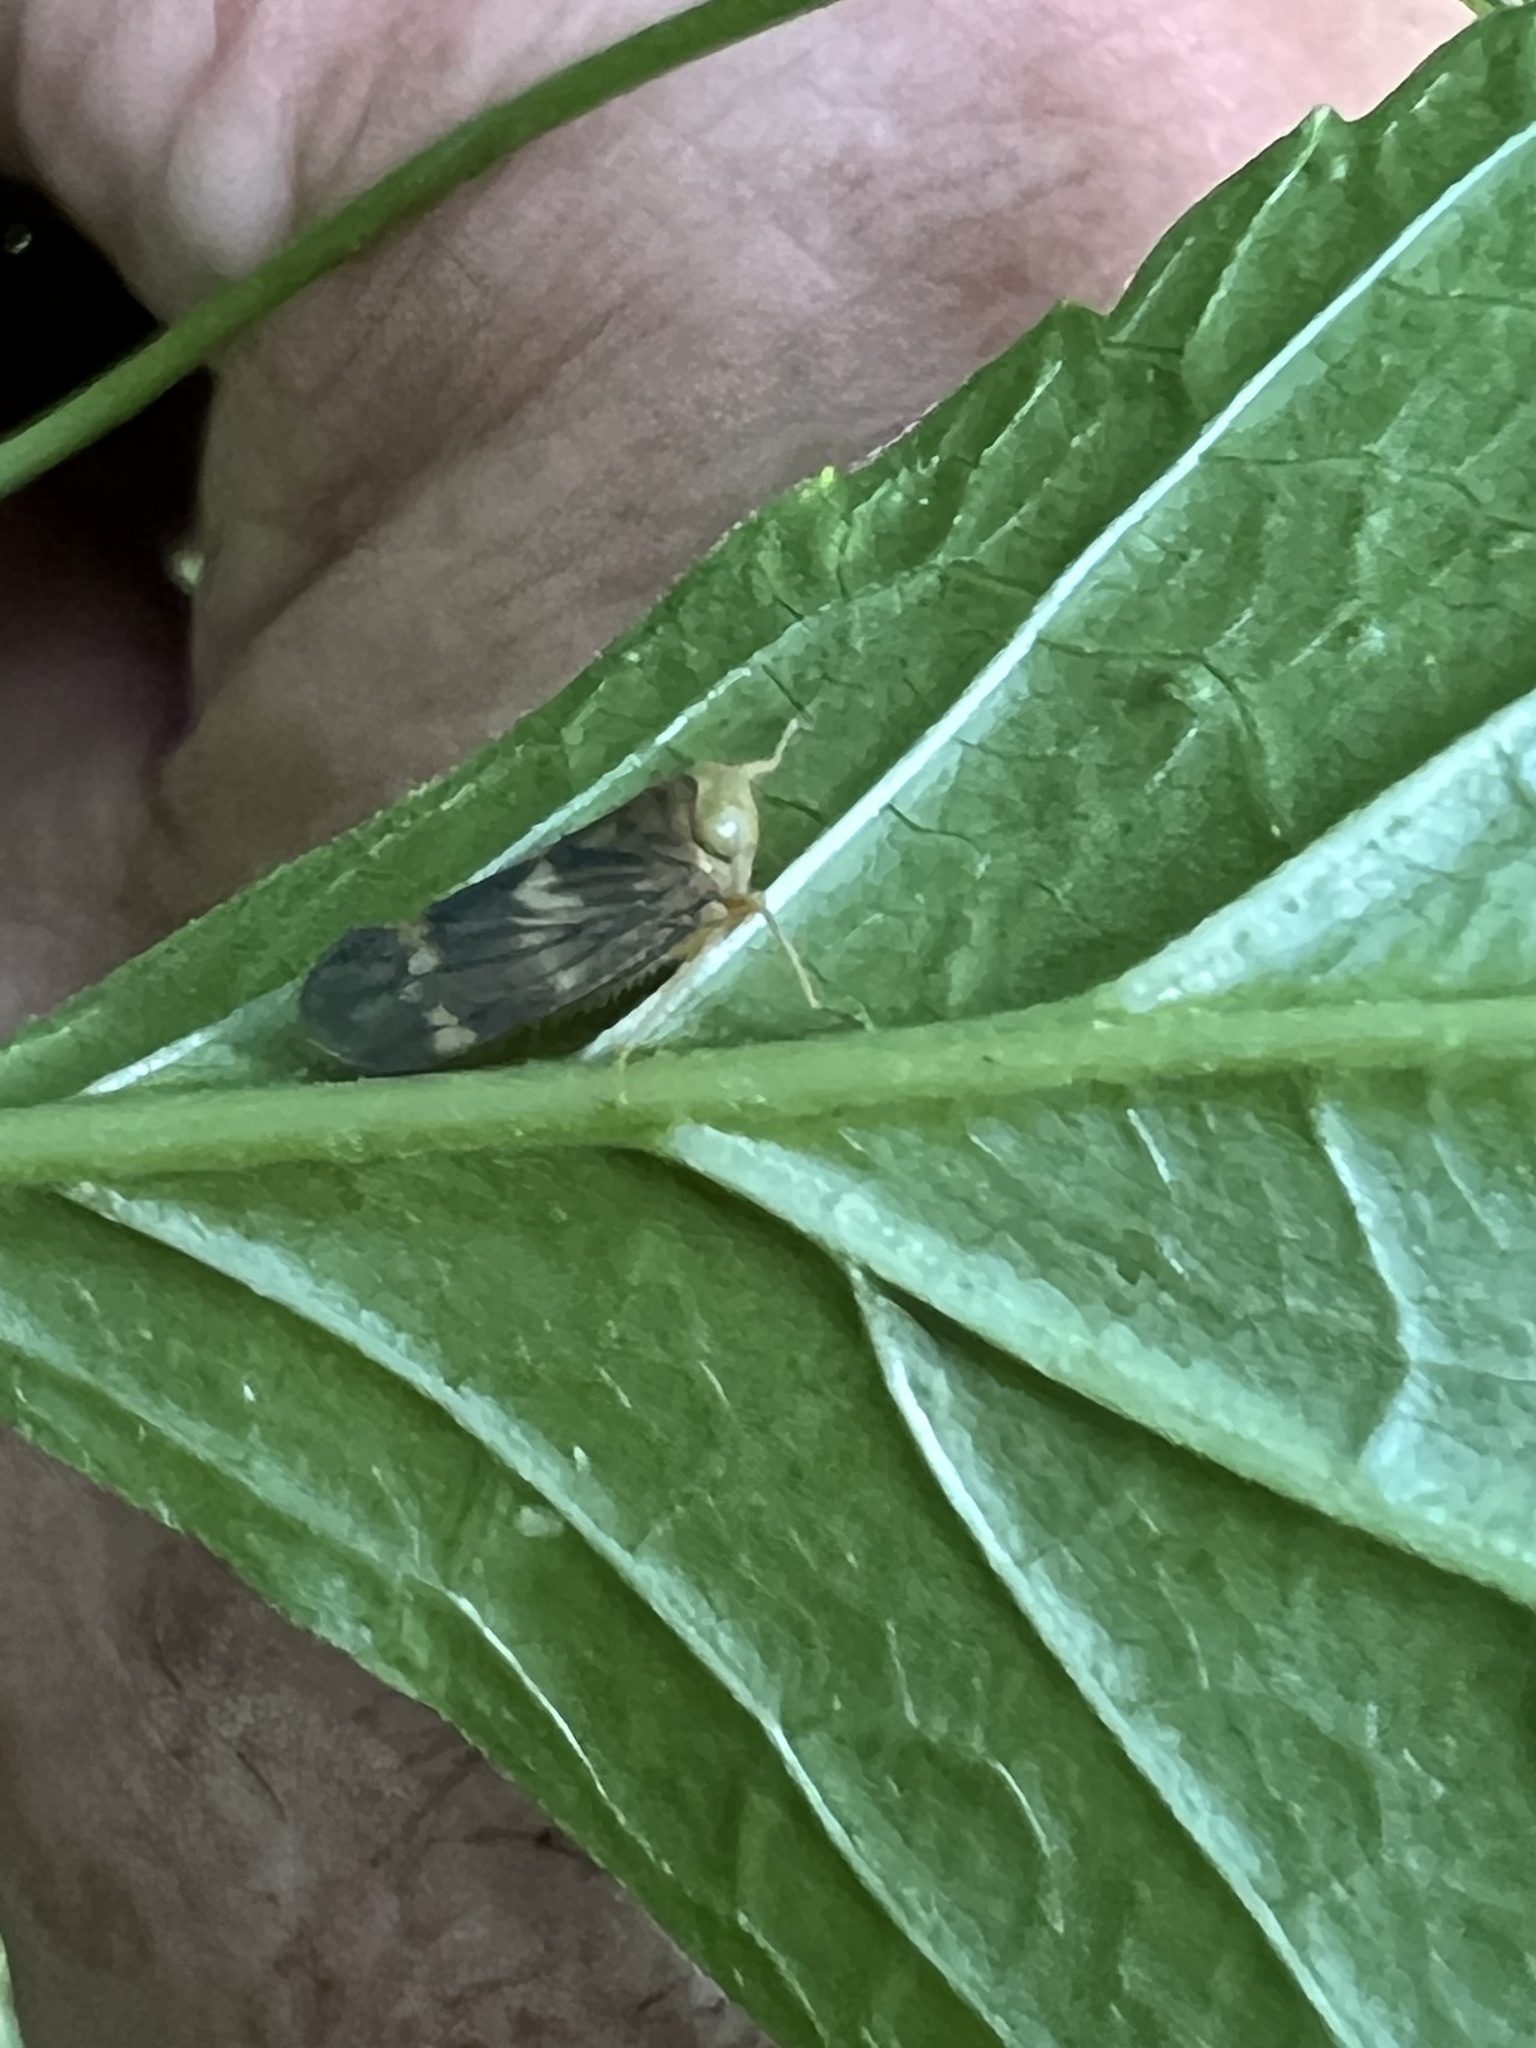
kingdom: Animalia
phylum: Arthropoda
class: Insecta
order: Hemiptera
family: Cicadellidae
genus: Jikradia
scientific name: Jikradia olitoria
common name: Coppery leafhopper
